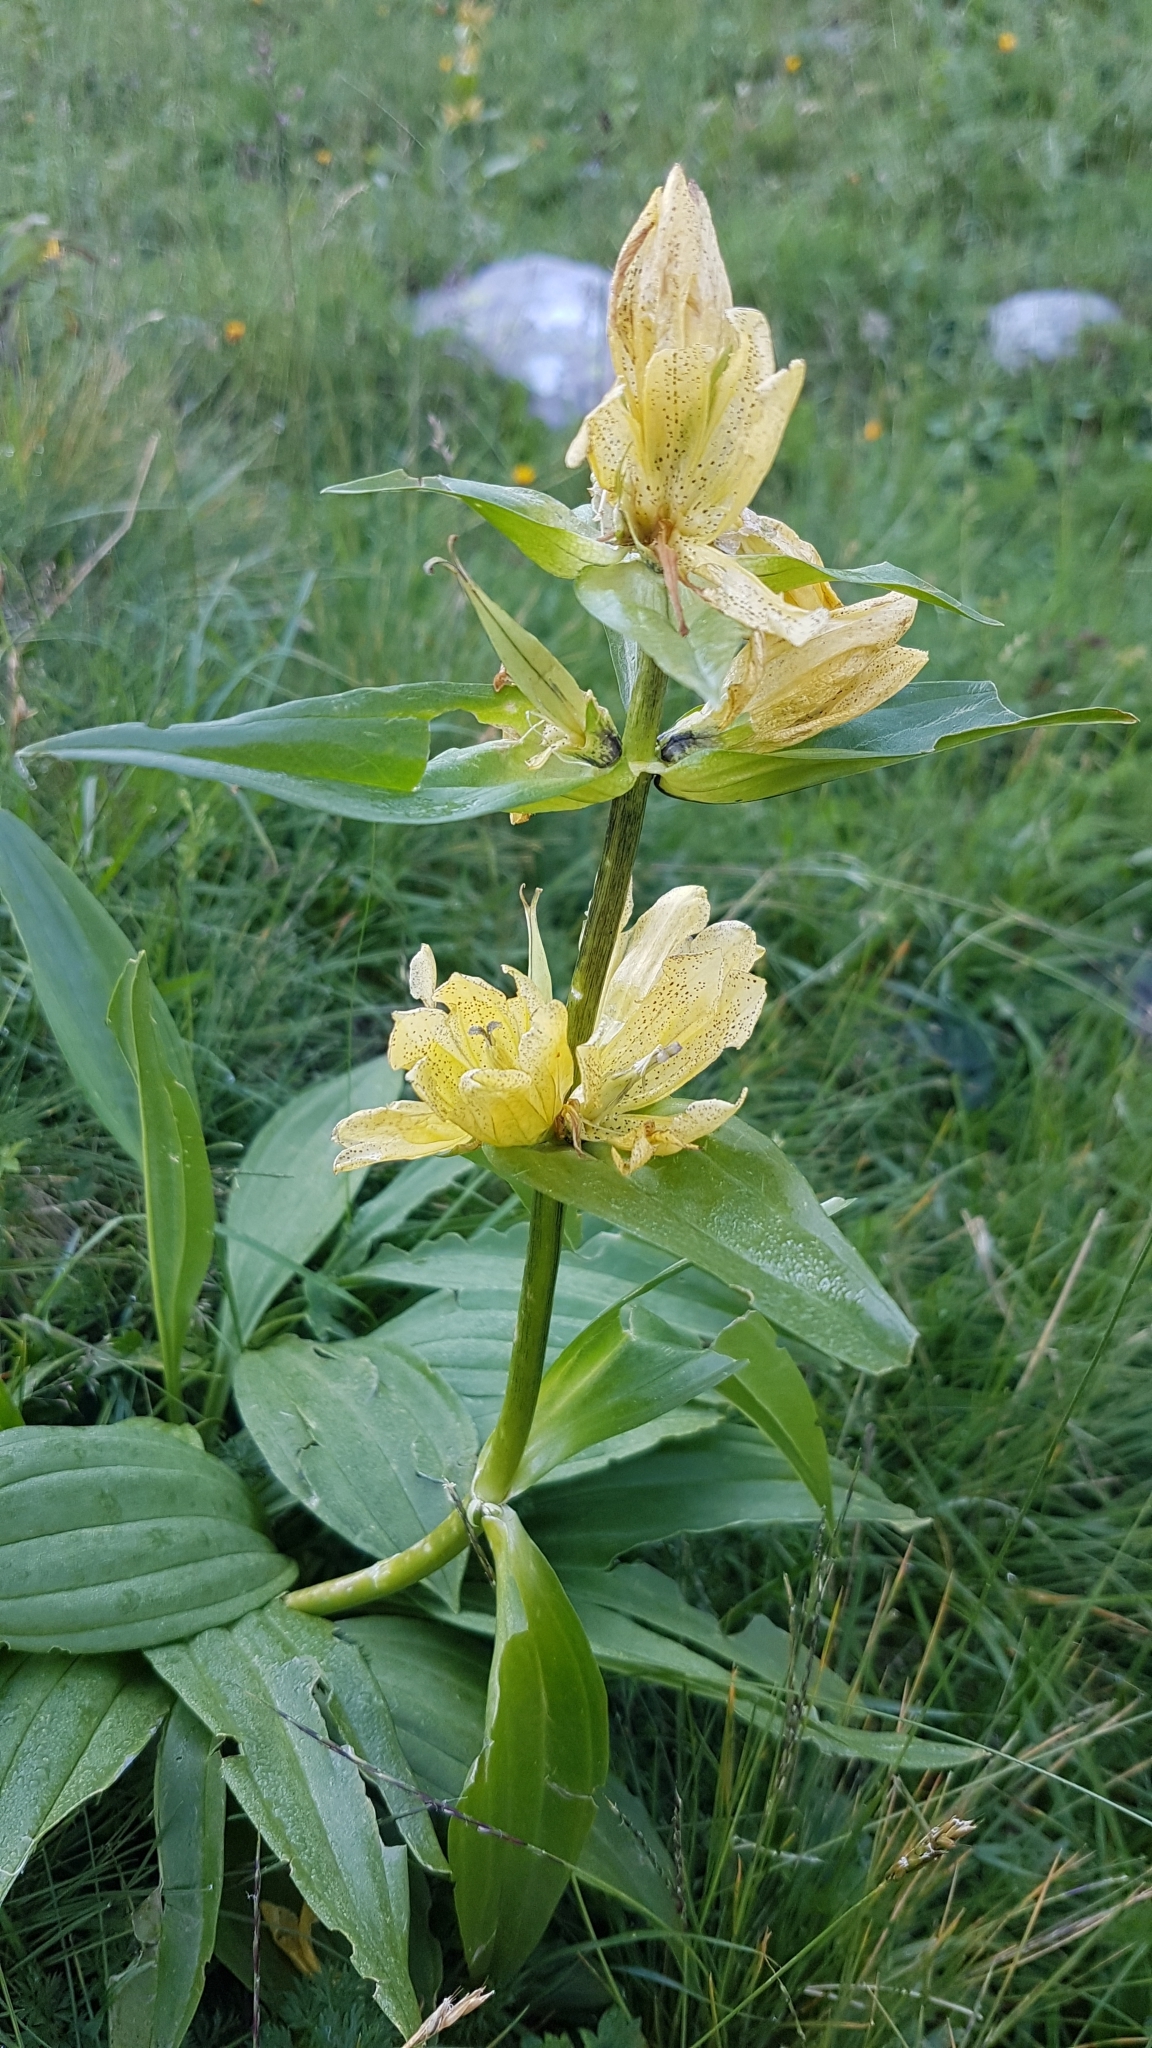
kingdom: Plantae
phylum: Tracheophyta
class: Magnoliopsida
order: Gentianales
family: Gentianaceae
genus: Gentiana
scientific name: Gentiana punctata
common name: Spotted gentian
